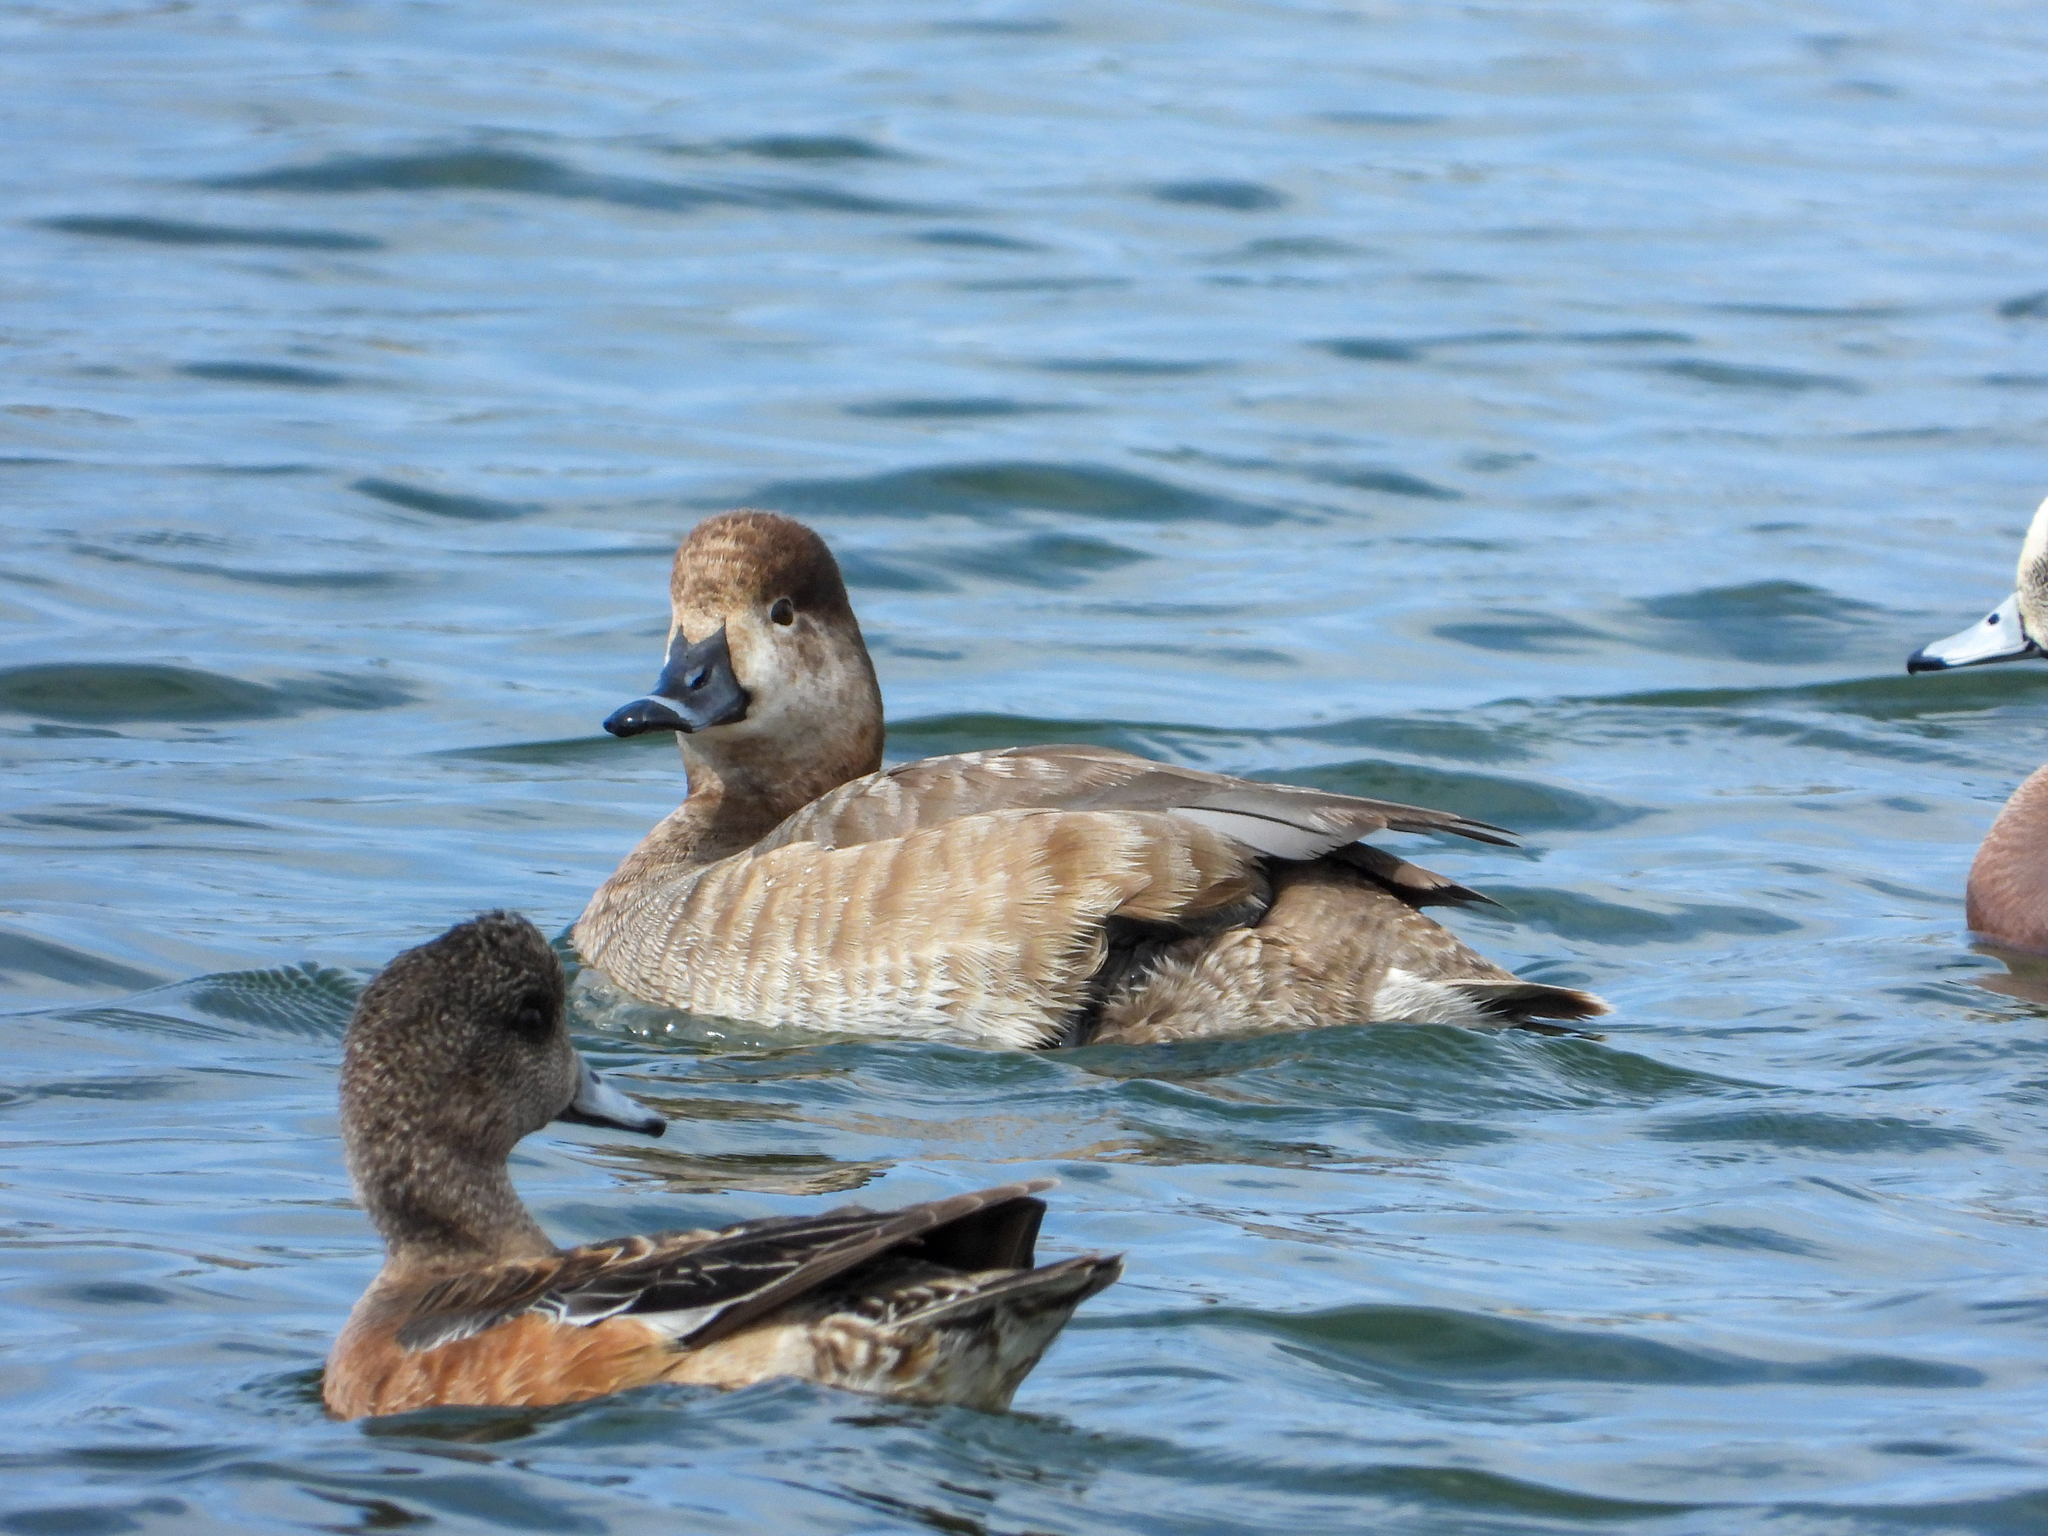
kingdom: Animalia
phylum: Chordata
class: Aves
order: Anseriformes
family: Anatidae
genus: Aythya
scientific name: Aythya americana
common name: Redhead
